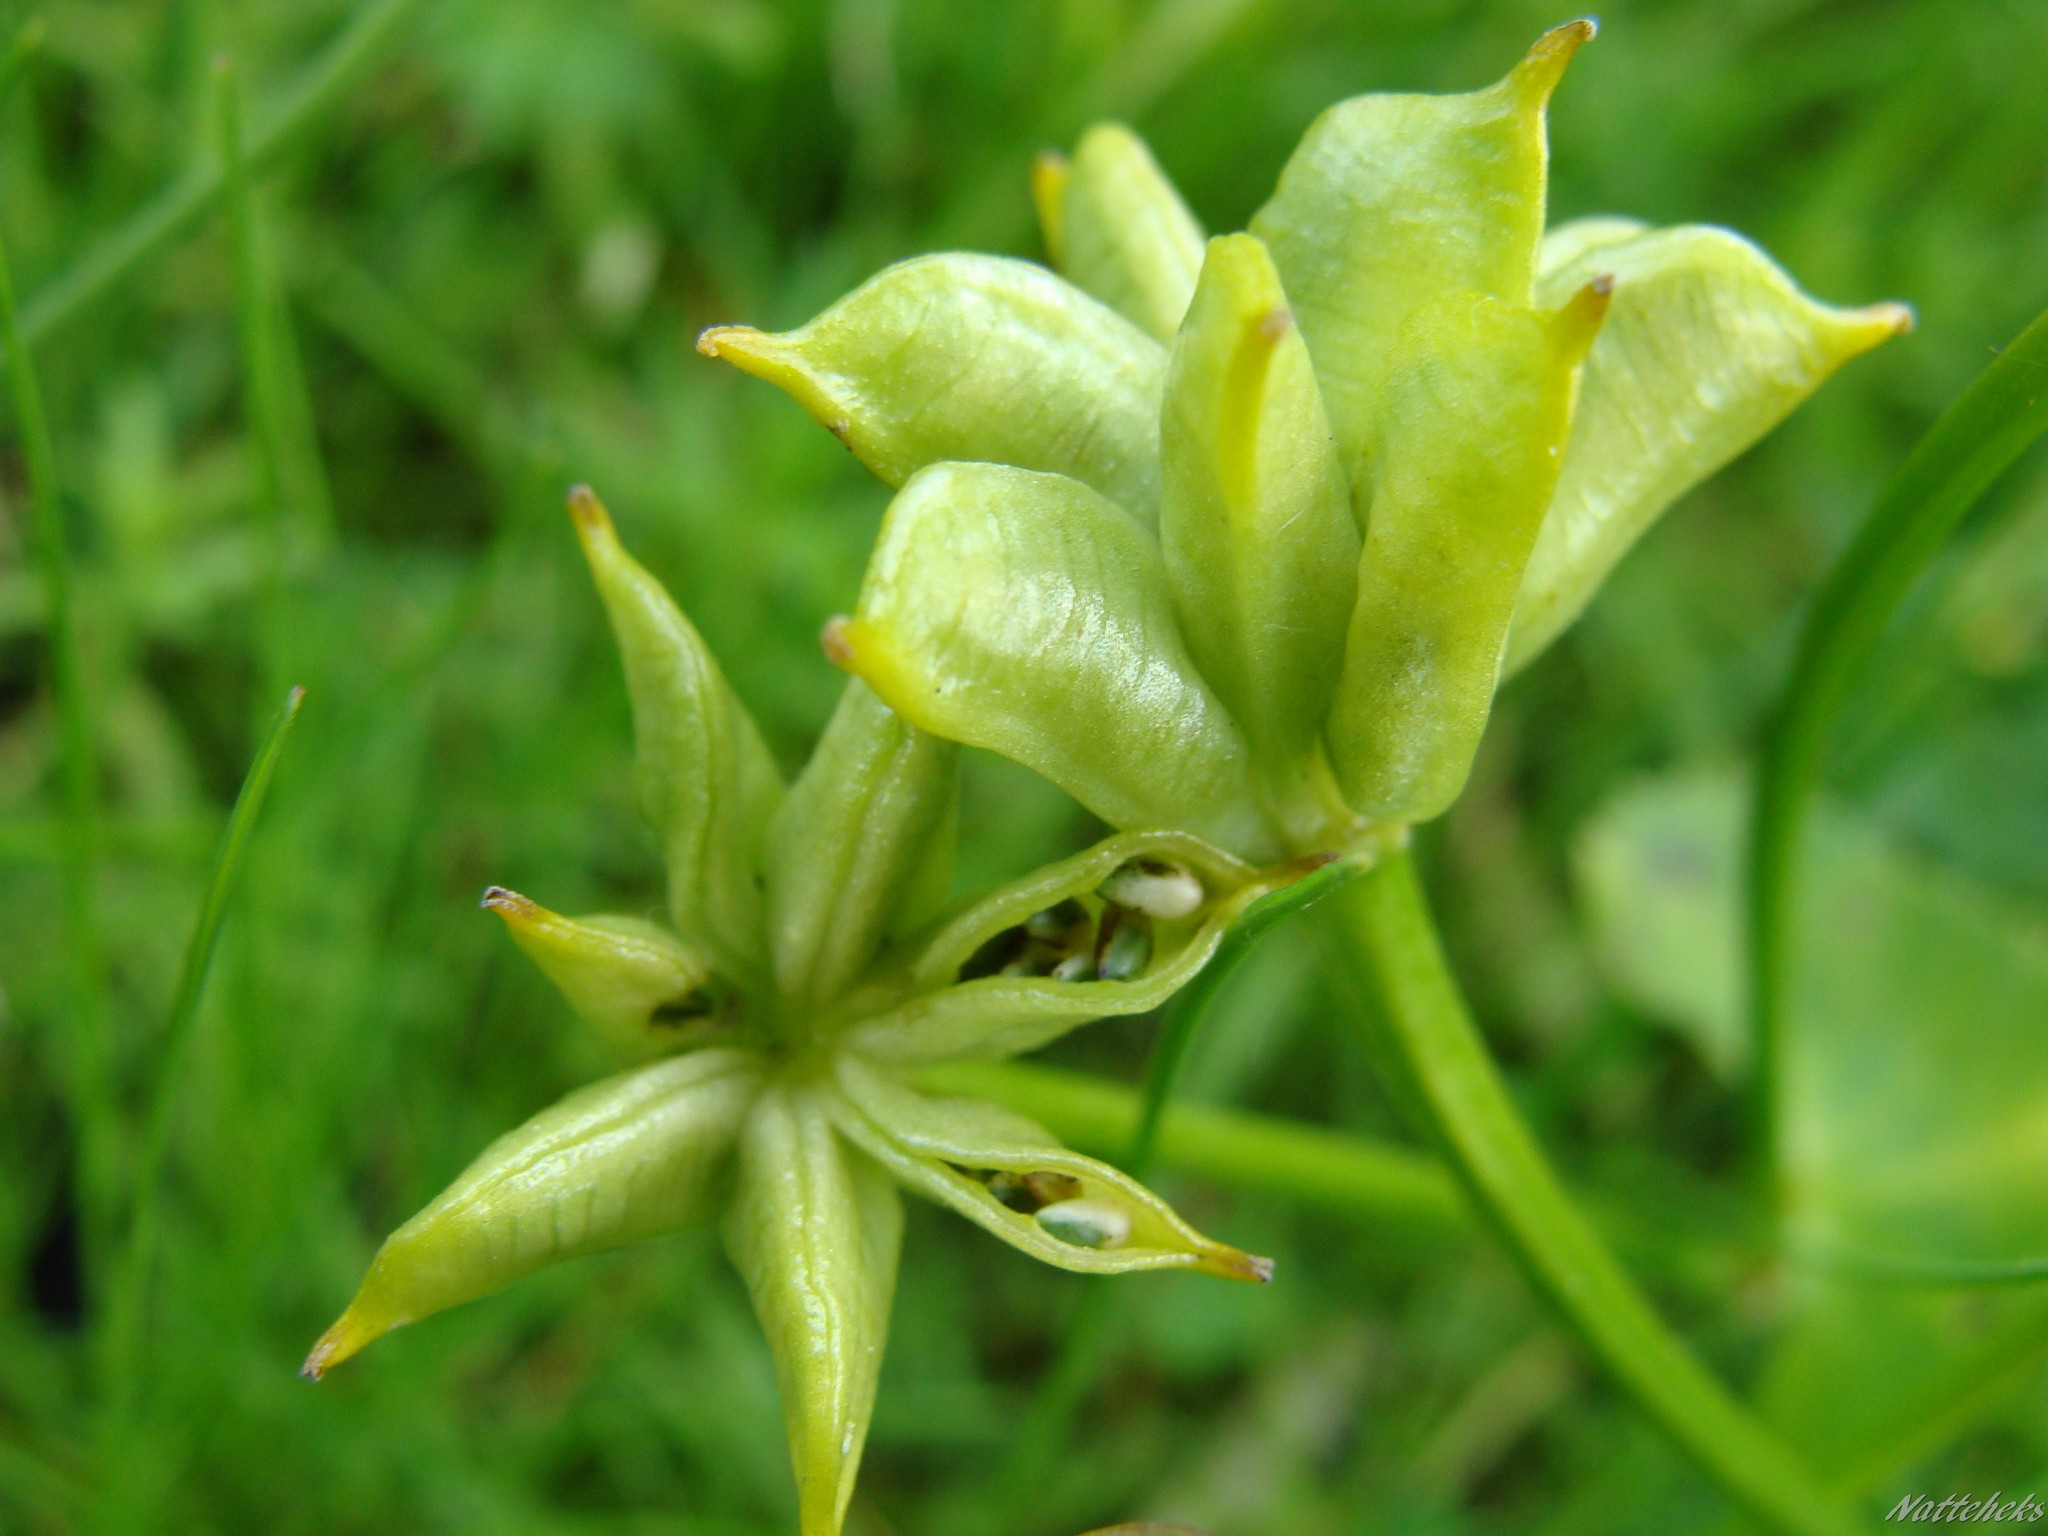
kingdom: Plantae
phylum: Tracheophyta
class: Magnoliopsida
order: Ranunculales
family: Ranunculaceae
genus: Caltha
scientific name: Caltha palustris
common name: Marsh marigold
